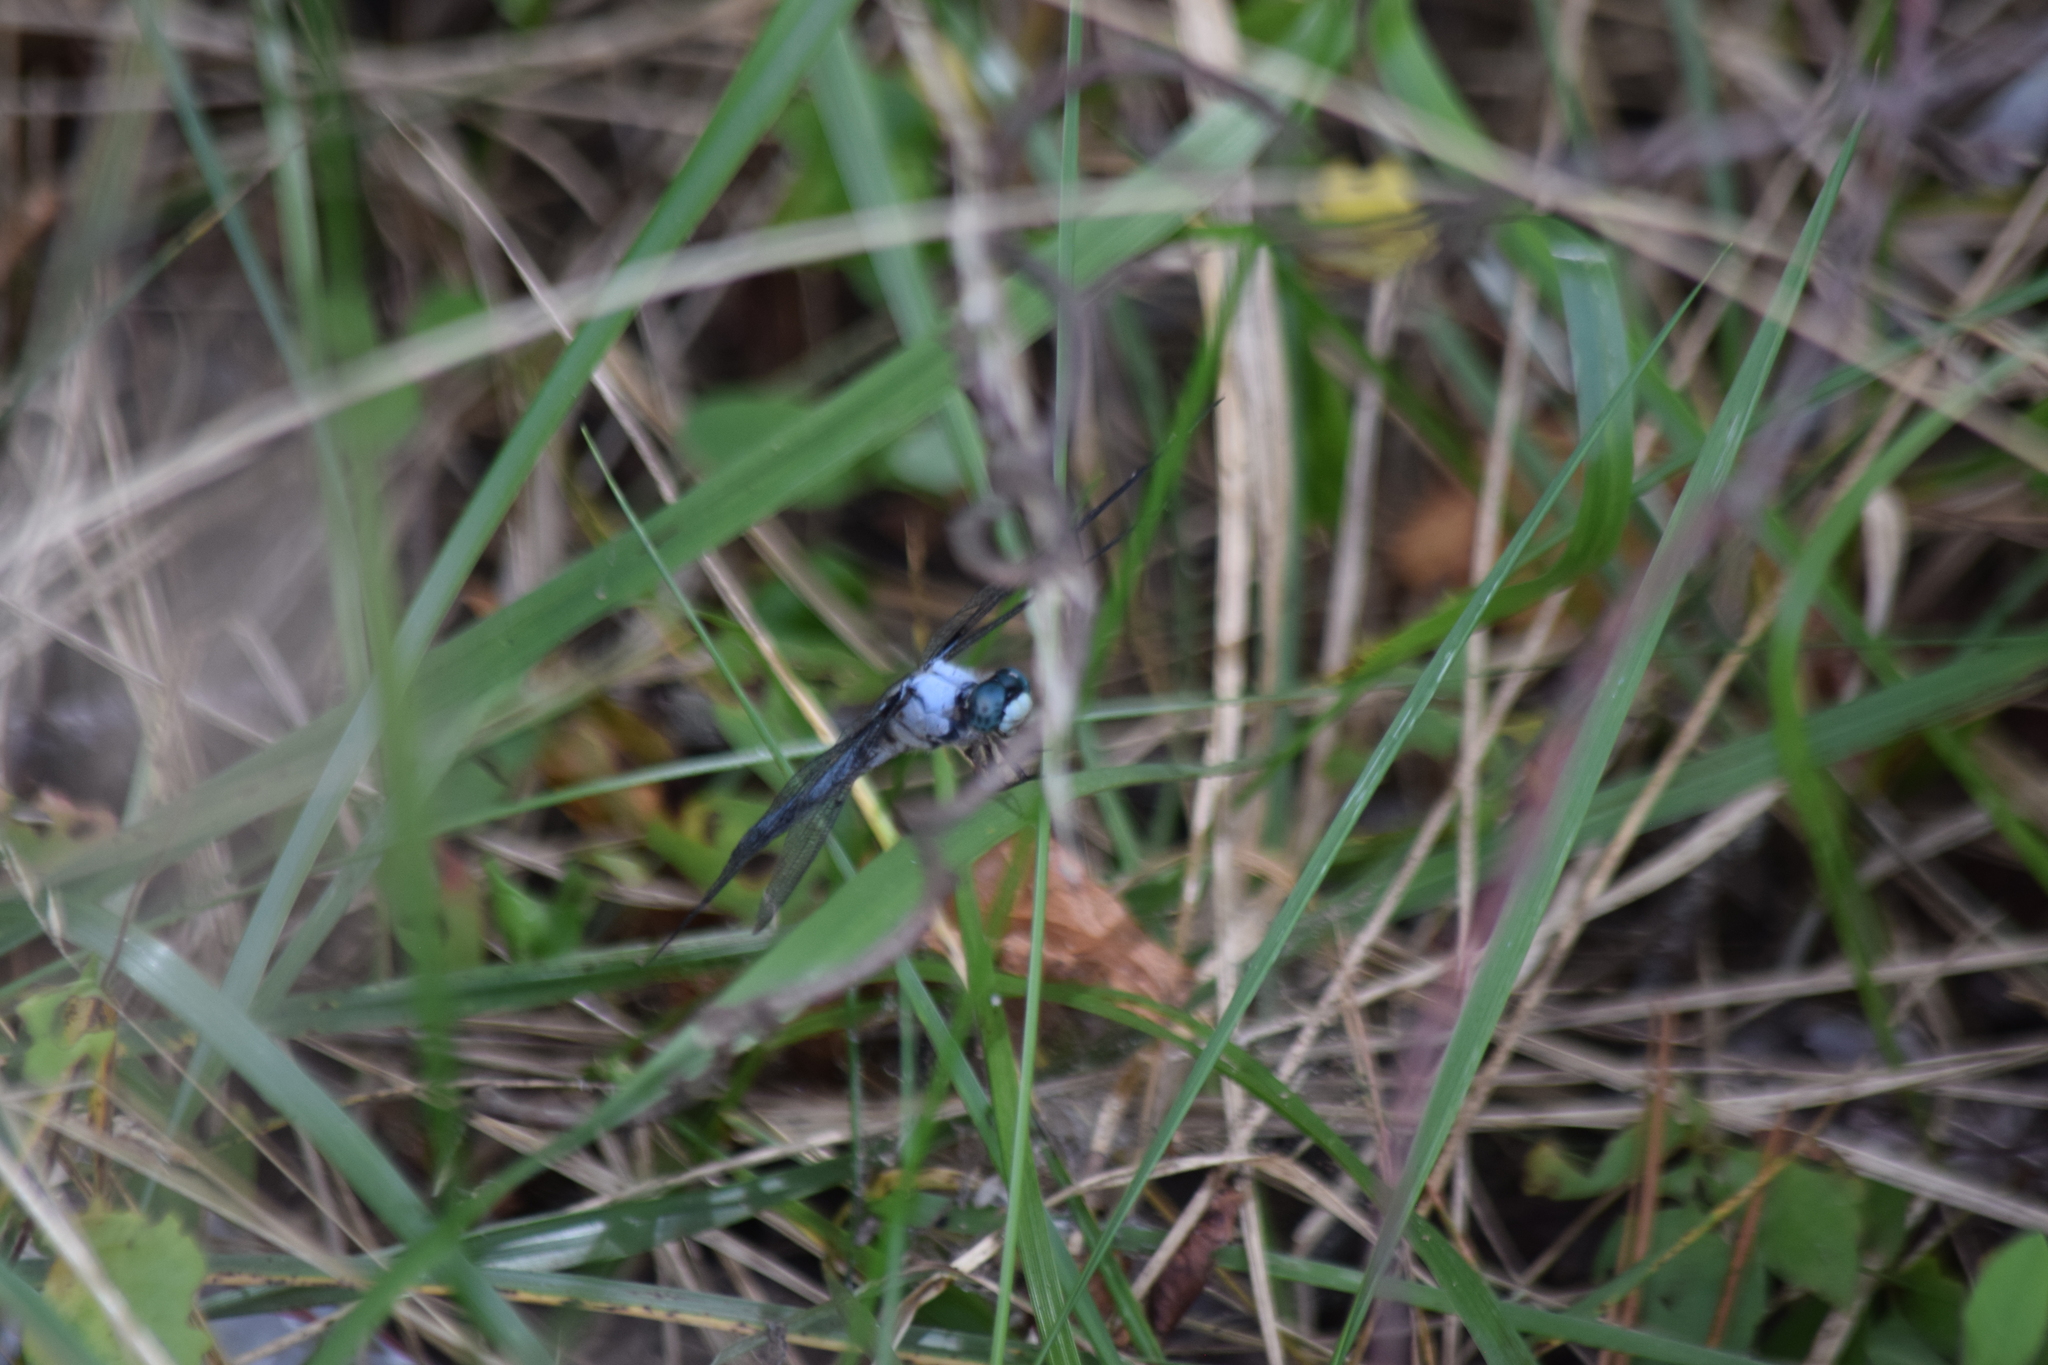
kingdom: Animalia
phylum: Arthropoda
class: Insecta
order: Odonata
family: Libellulidae
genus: Libellula
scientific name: Libellula vibrans
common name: Great blue skimmer
